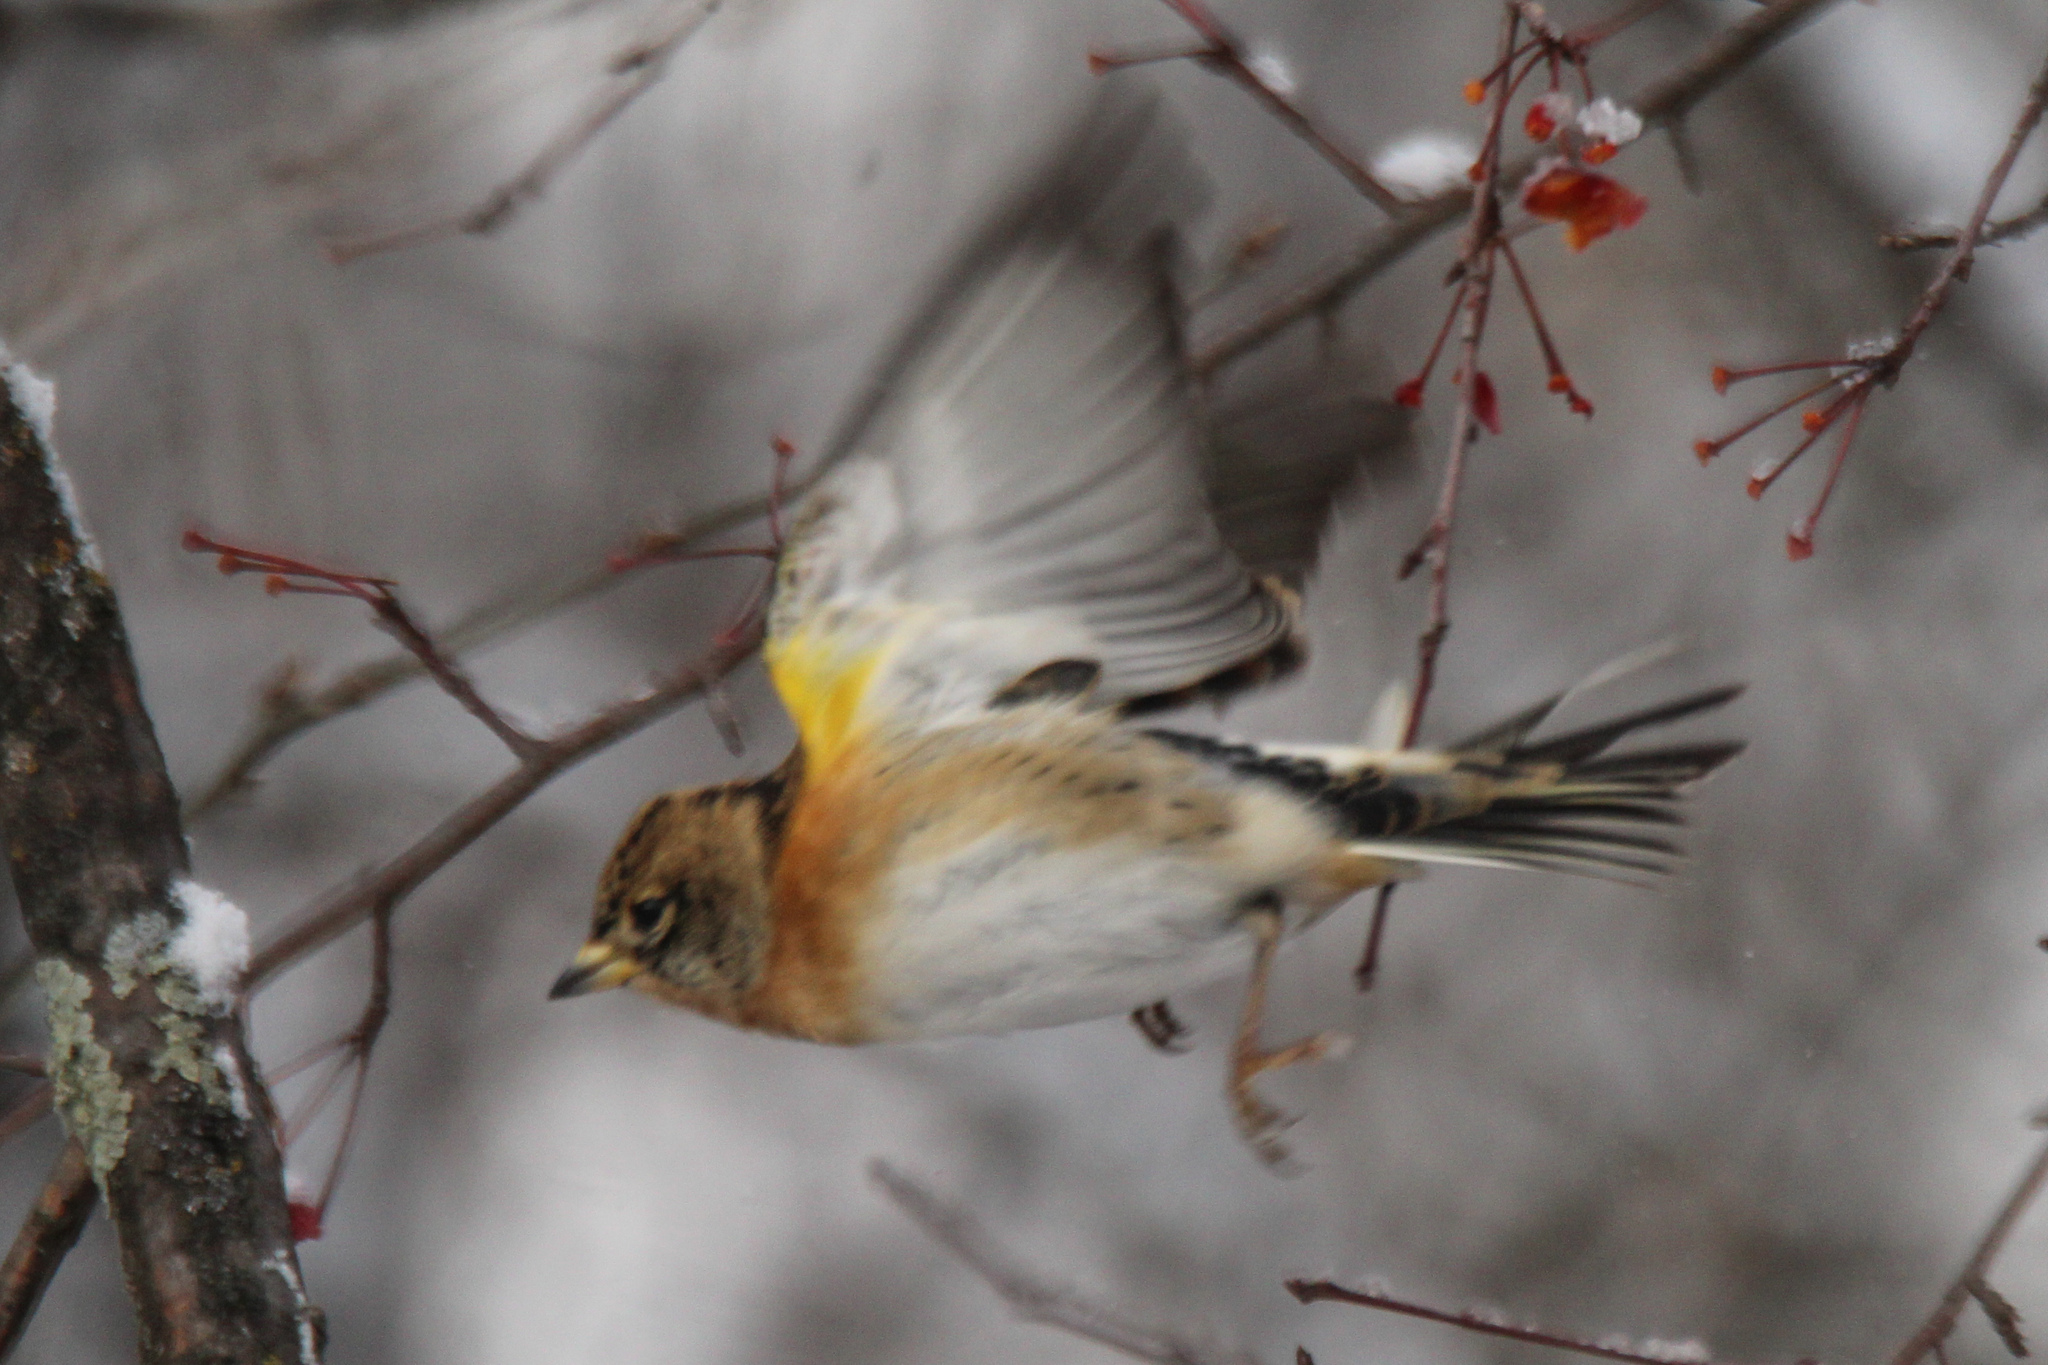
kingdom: Animalia
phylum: Chordata
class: Aves
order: Passeriformes
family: Fringillidae
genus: Fringilla
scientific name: Fringilla montifringilla
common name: Brambling
